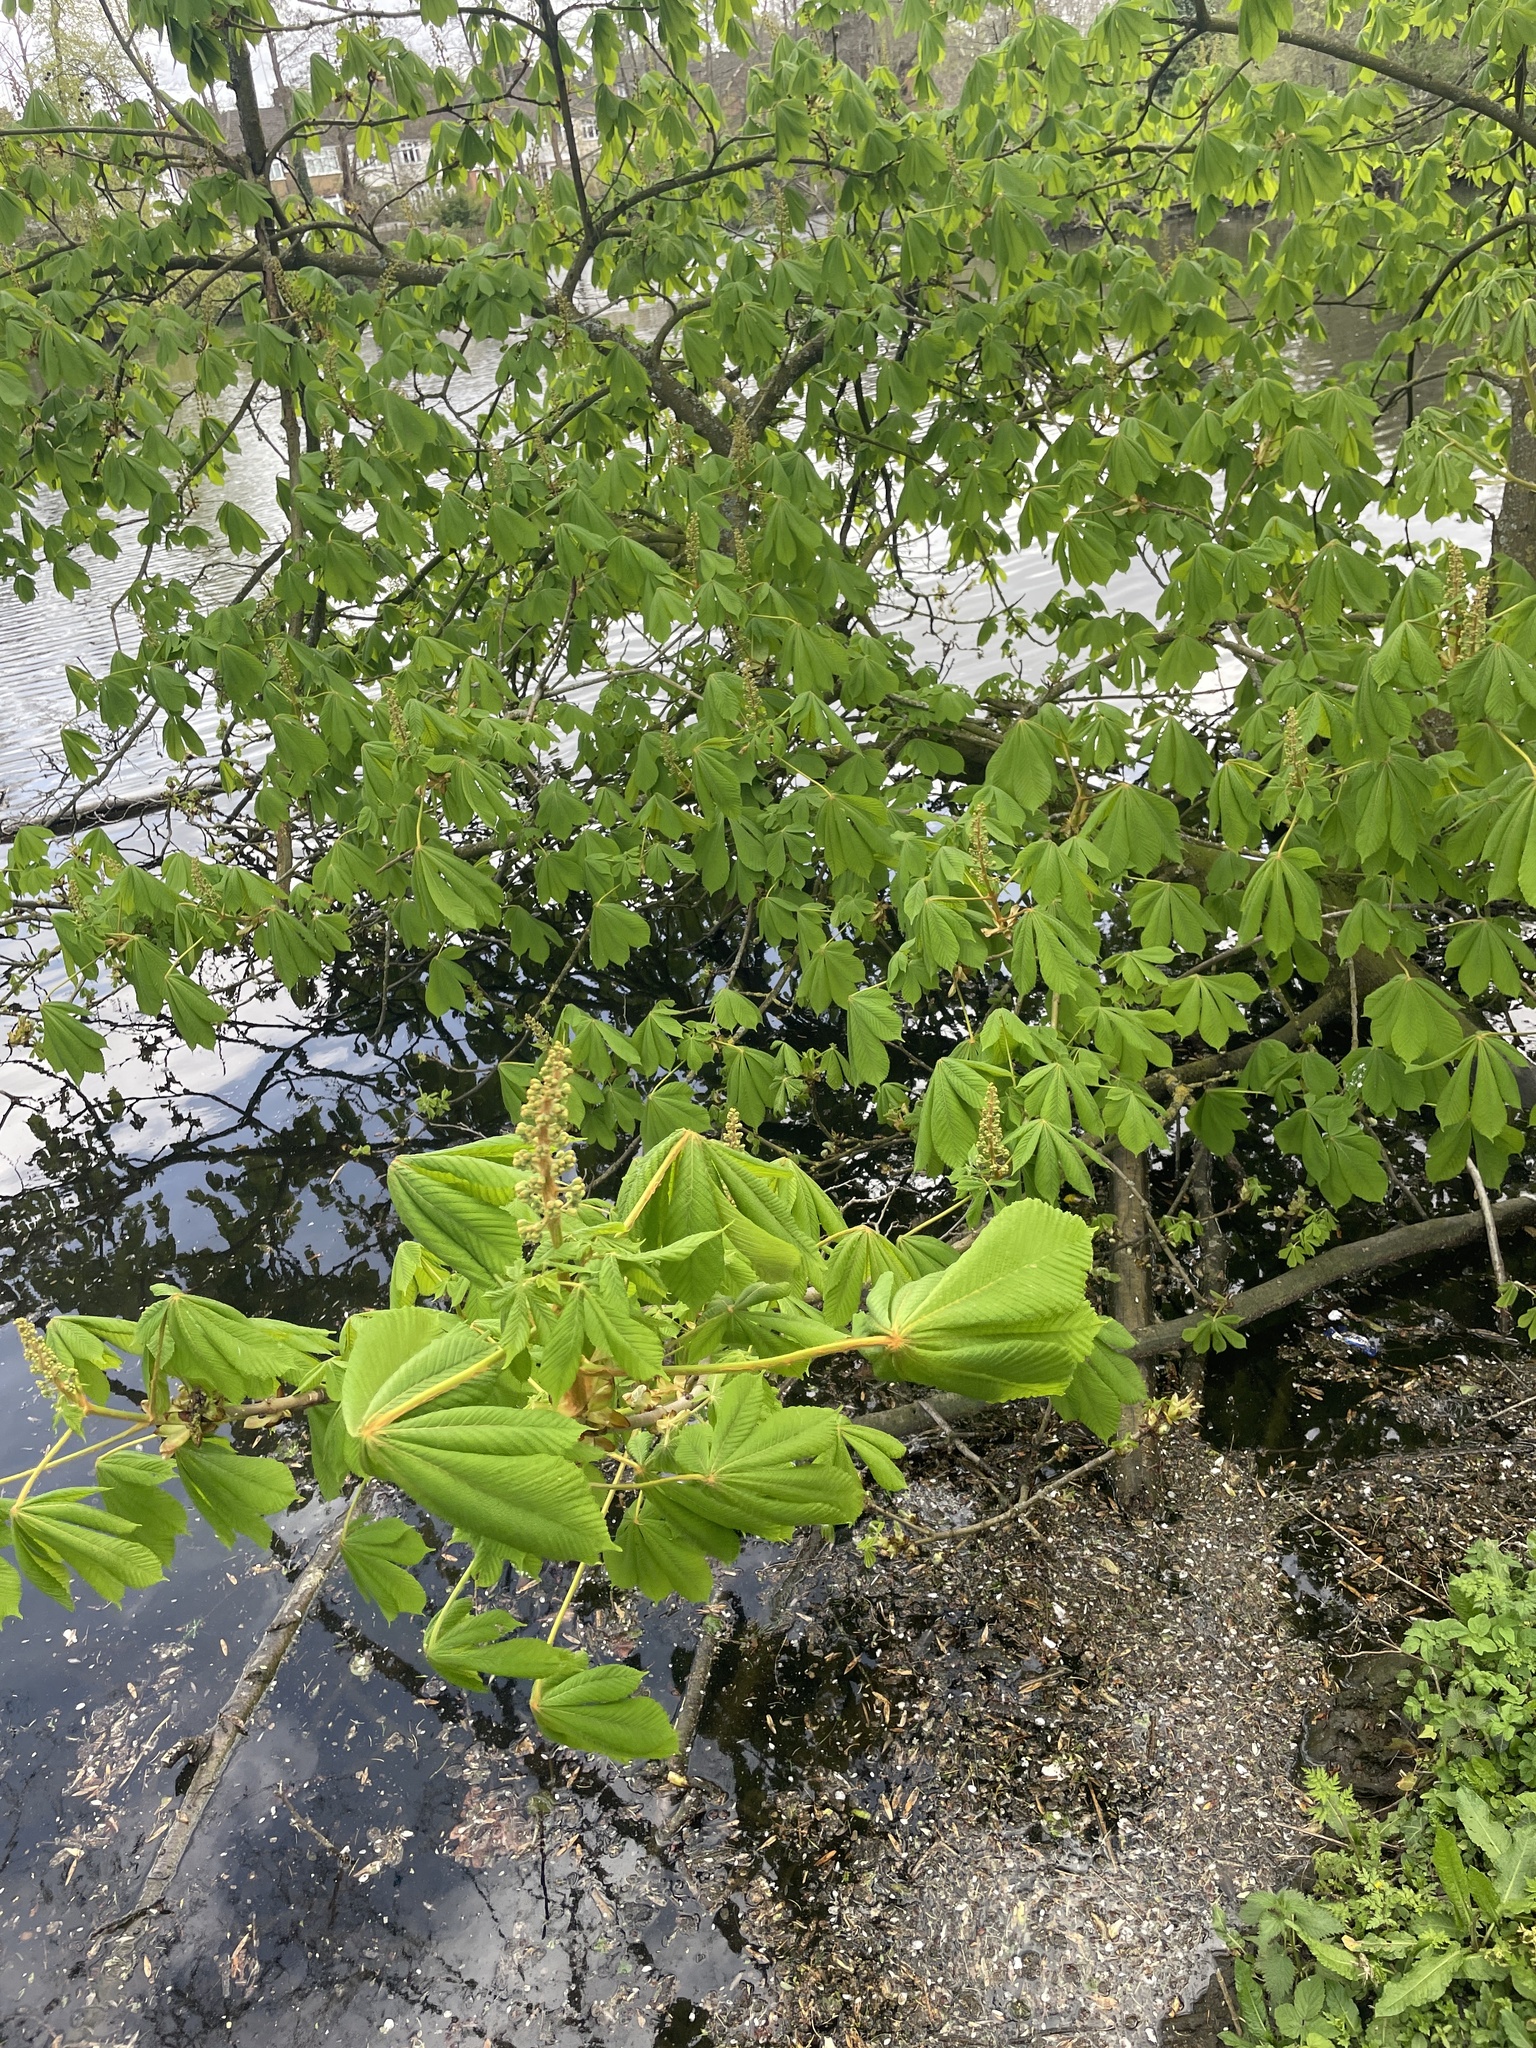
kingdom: Plantae
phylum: Tracheophyta
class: Magnoliopsida
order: Sapindales
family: Sapindaceae
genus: Aesculus
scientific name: Aesculus hippocastanum
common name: Horse-chestnut
